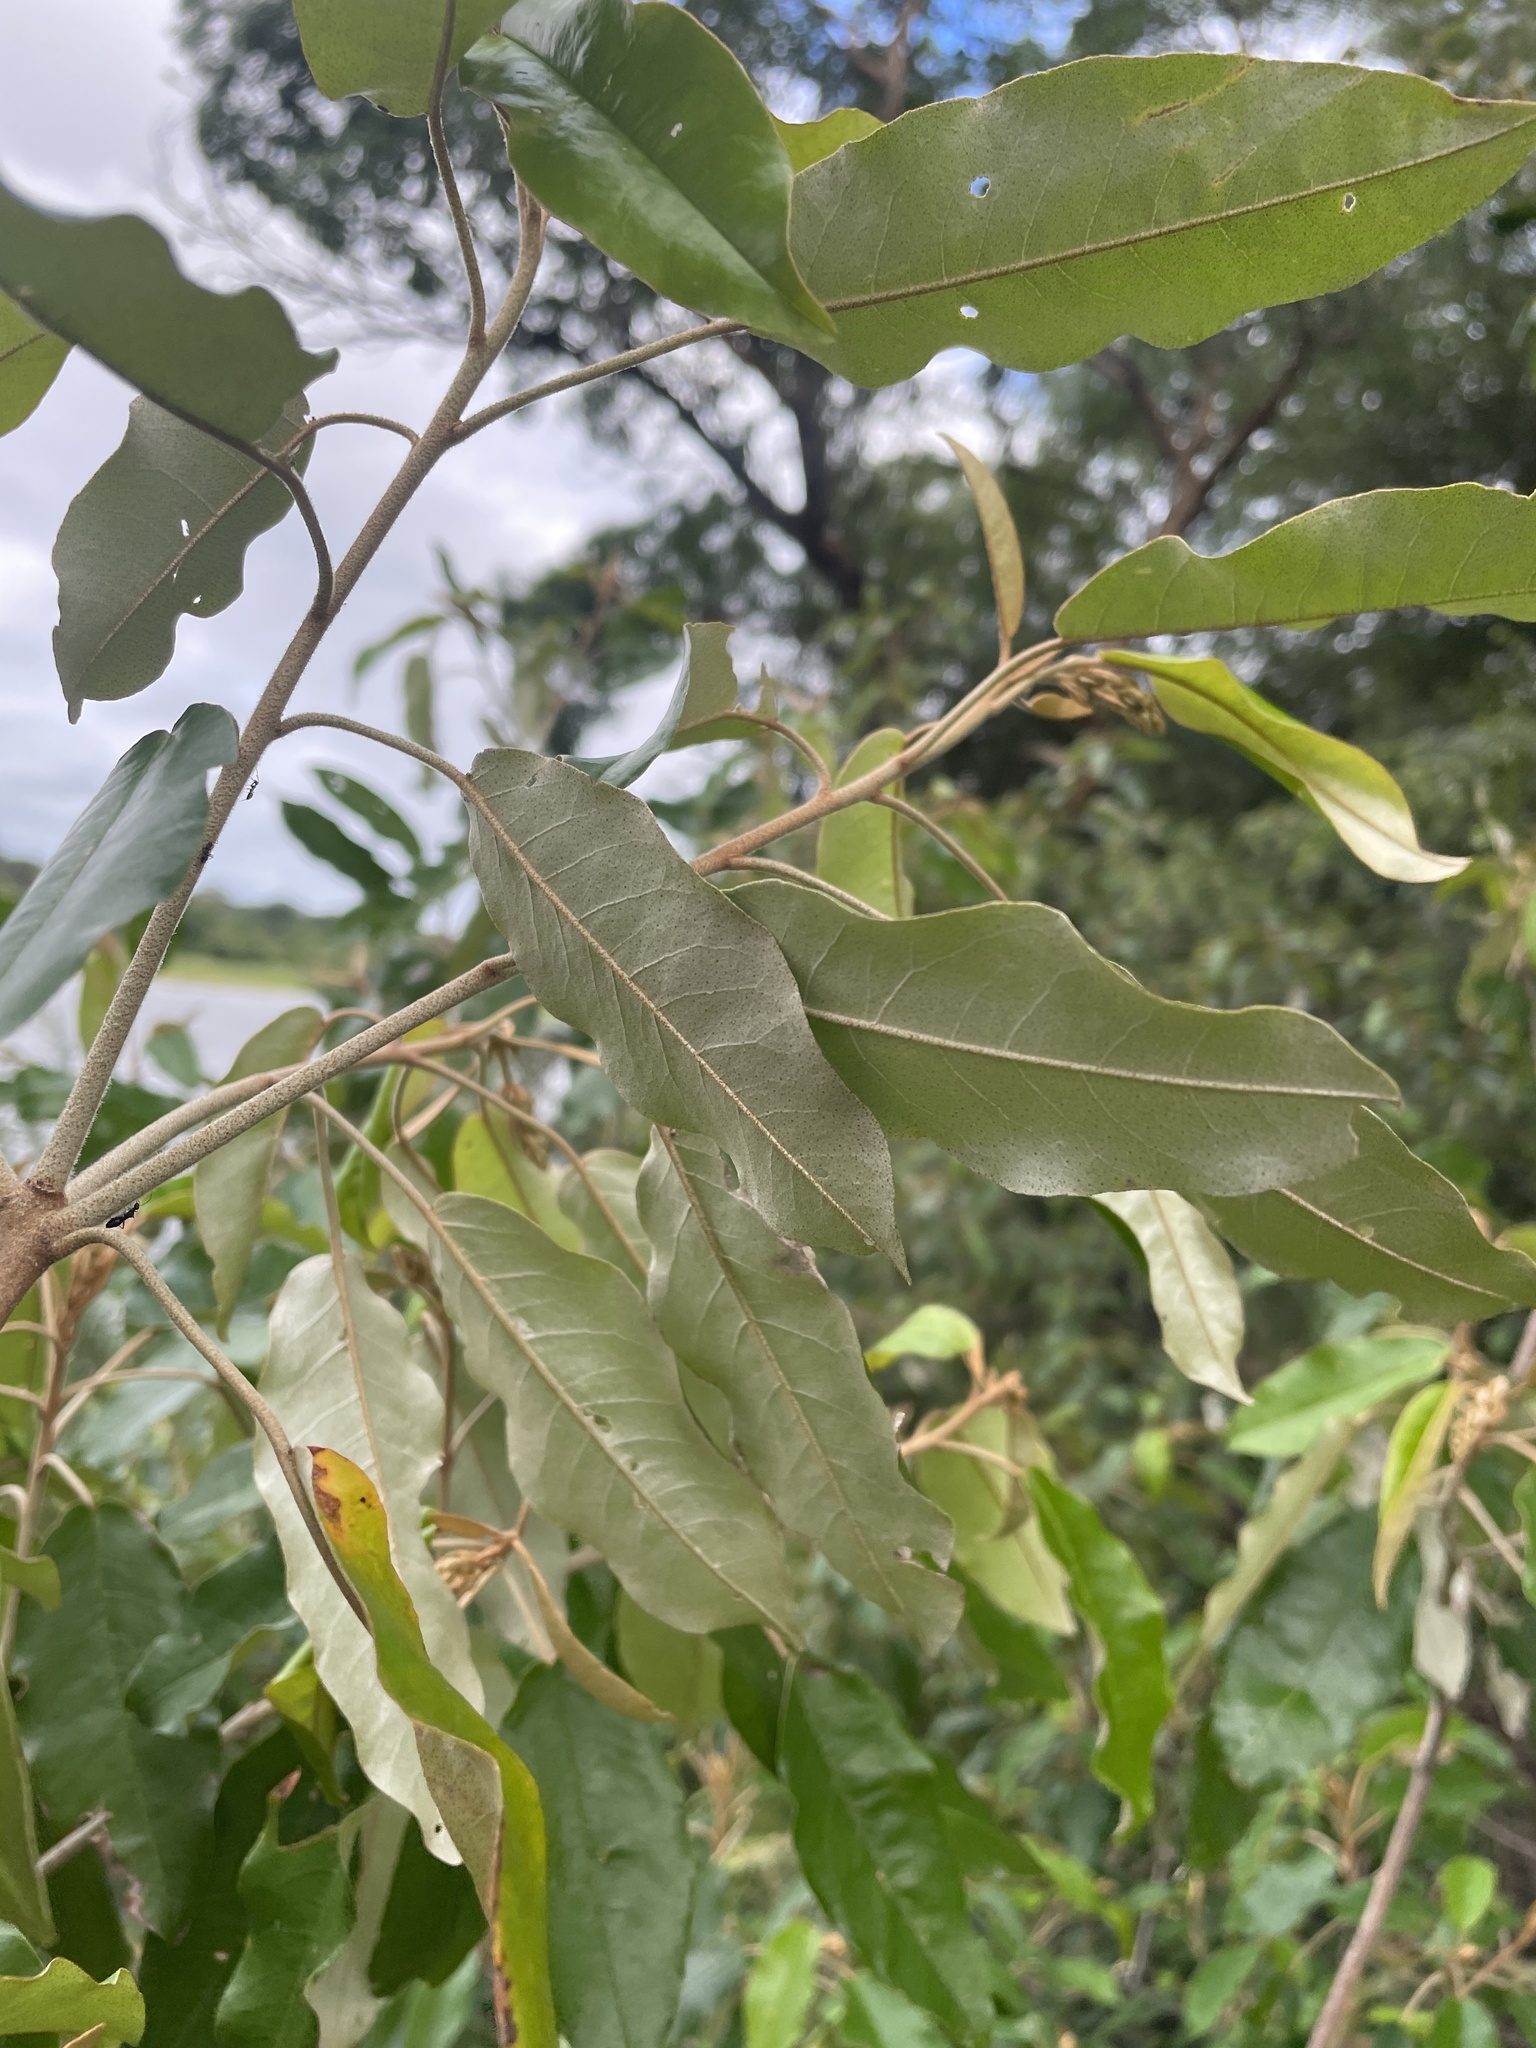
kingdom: Plantae
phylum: Tracheophyta
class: Magnoliopsida
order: Malpighiales
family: Euphorbiaceae
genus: Croton
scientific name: Croton gratissimus
